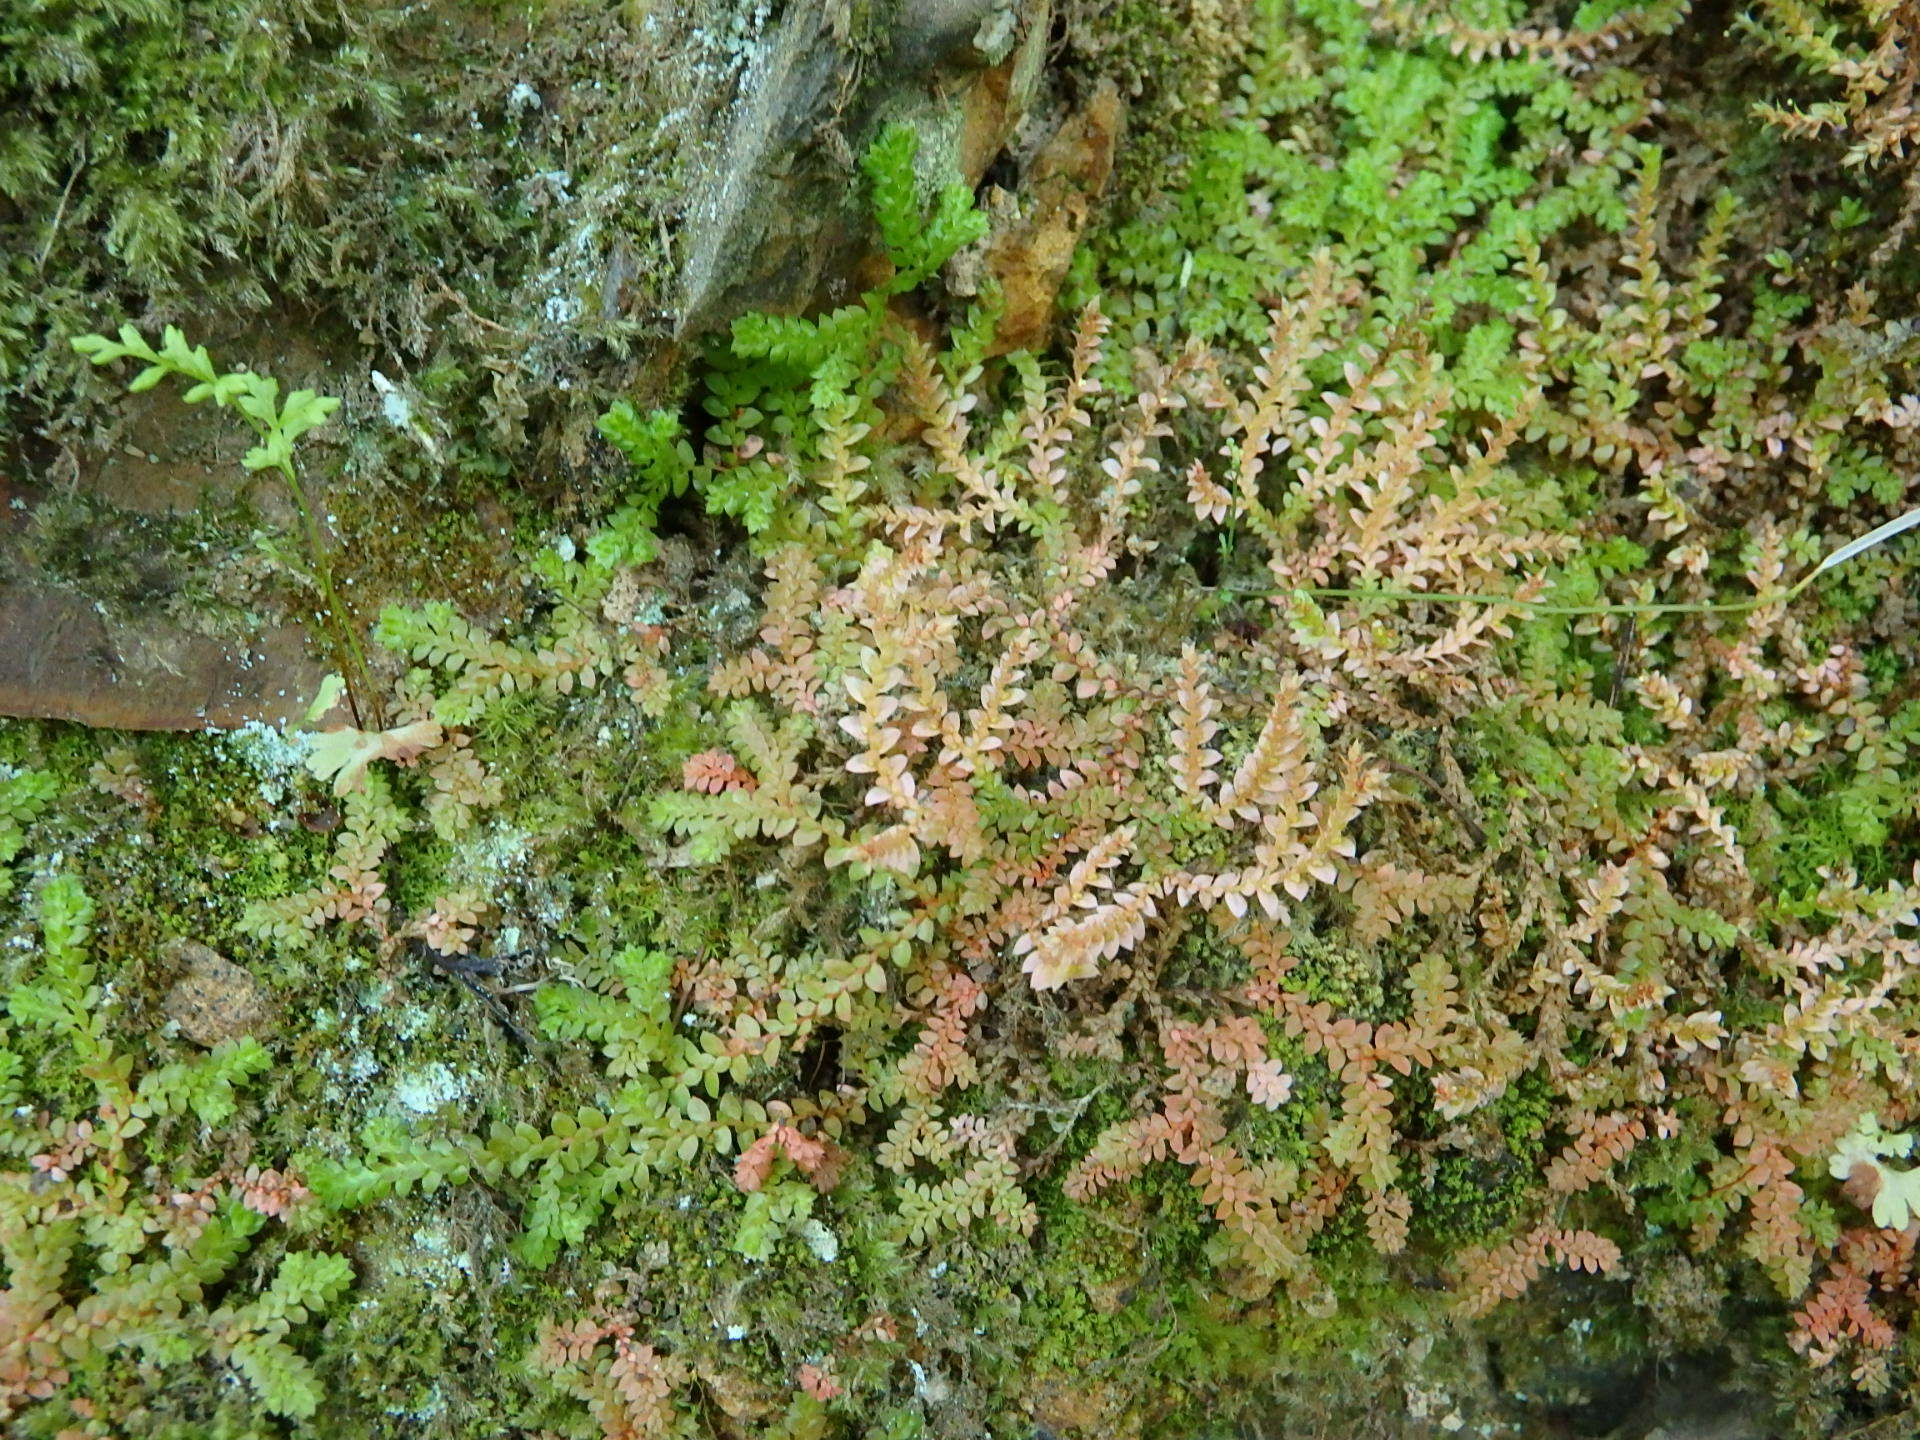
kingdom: Plantae
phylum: Tracheophyta
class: Lycopodiopsida
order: Selaginellales
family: Selaginellaceae
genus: Selaginella
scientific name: Selaginella denticulata
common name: Toothed-leaved clubmoss
